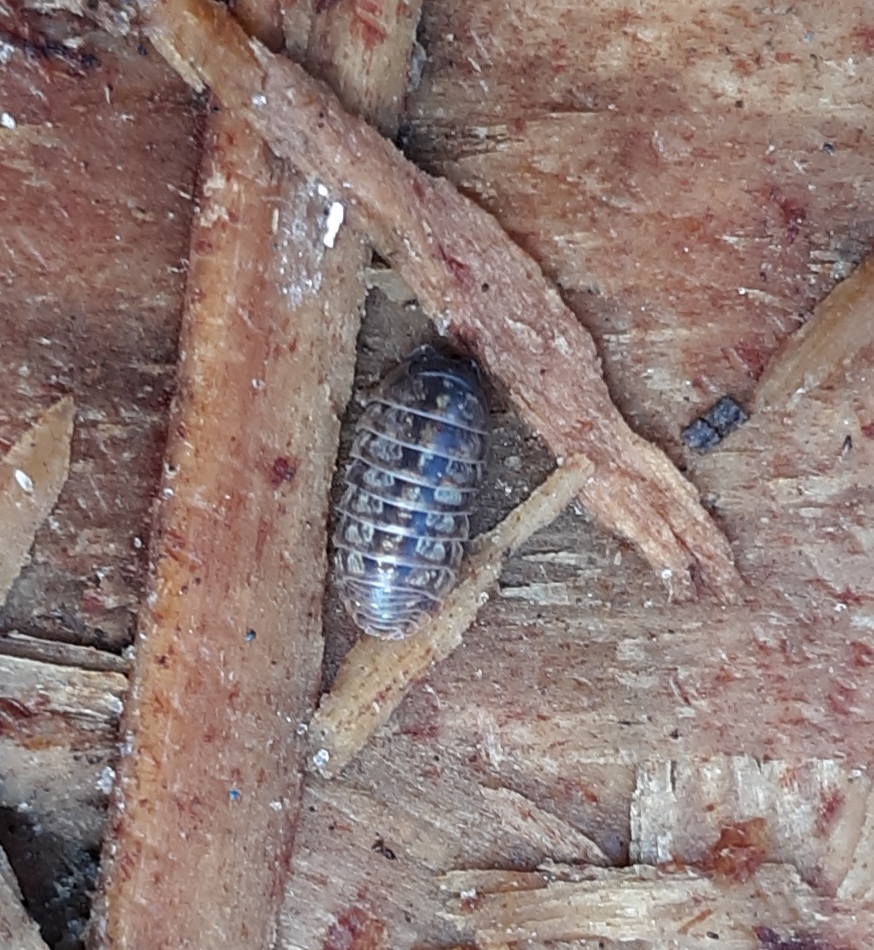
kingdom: Animalia
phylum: Arthropoda
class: Malacostraca
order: Isopoda
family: Armadillidiidae
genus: Armadillidium
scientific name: Armadillidium vulgare
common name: Common pill woodlouse
